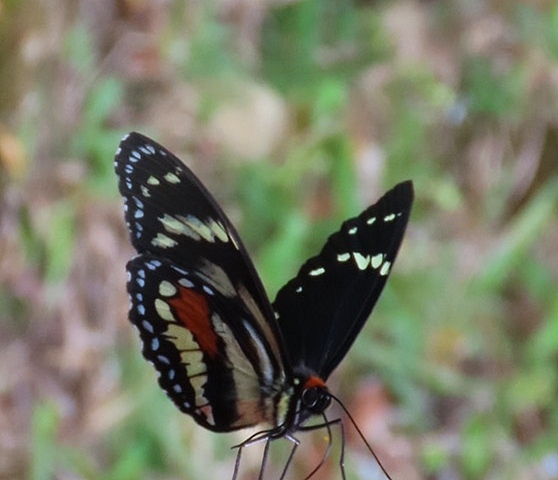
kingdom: Animalia
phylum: Arthropoda
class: Insecta
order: Lepidoptera
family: Nymphalidae
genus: Elzunia
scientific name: Elzunia humboldtii
